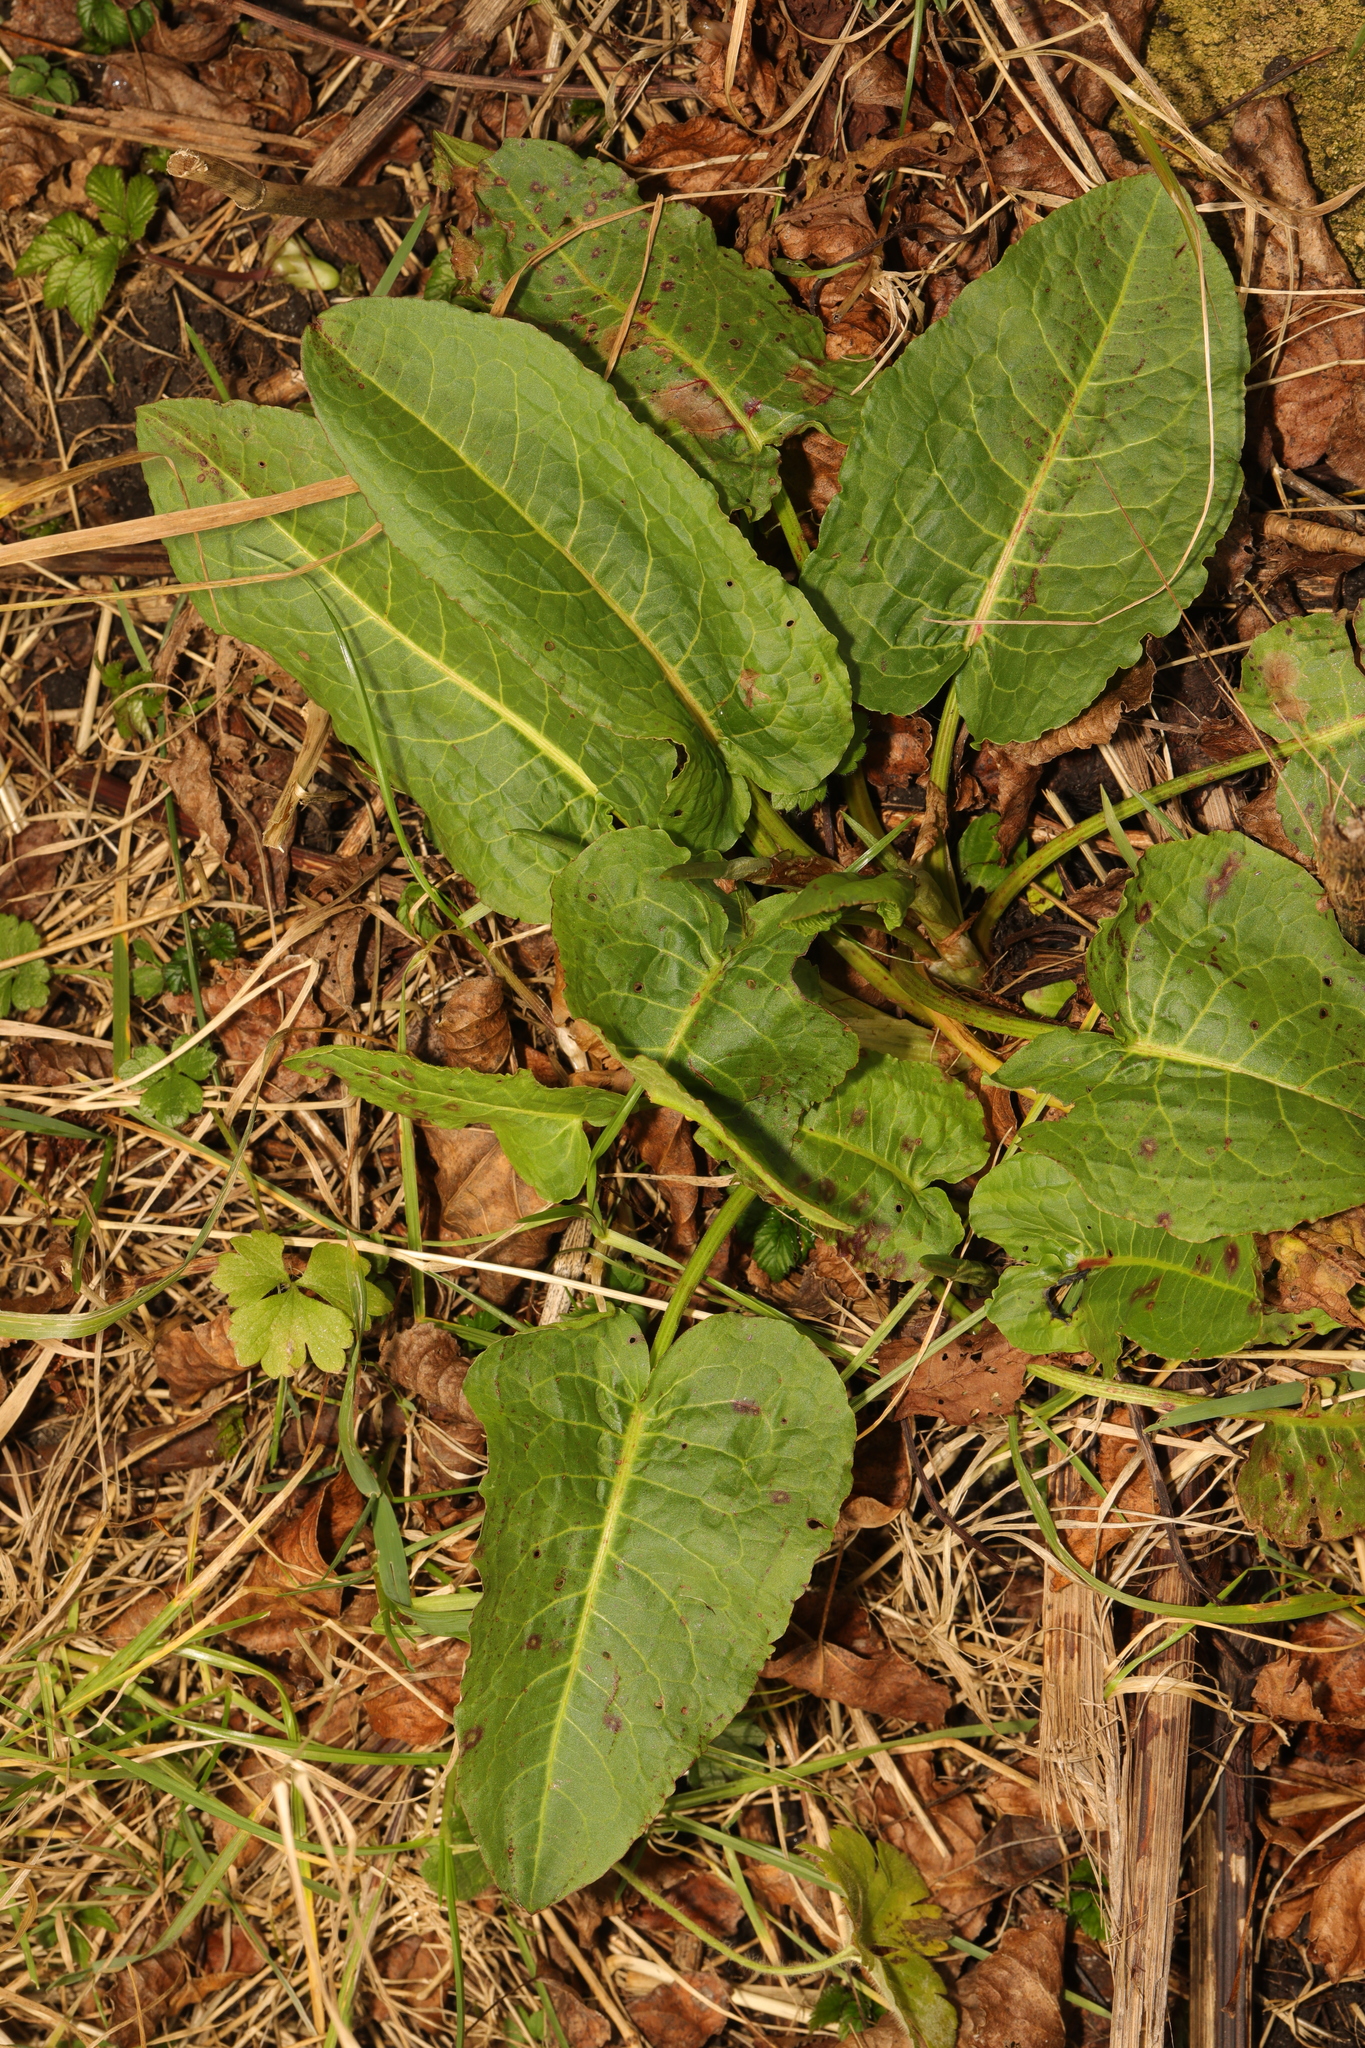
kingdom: Plantae
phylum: Tracheophyta
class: Magnoliopsida
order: Caryophyllales
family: Polygonaceae
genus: Rumex
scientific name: Rumex obtusifolius
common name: Bitter dock
